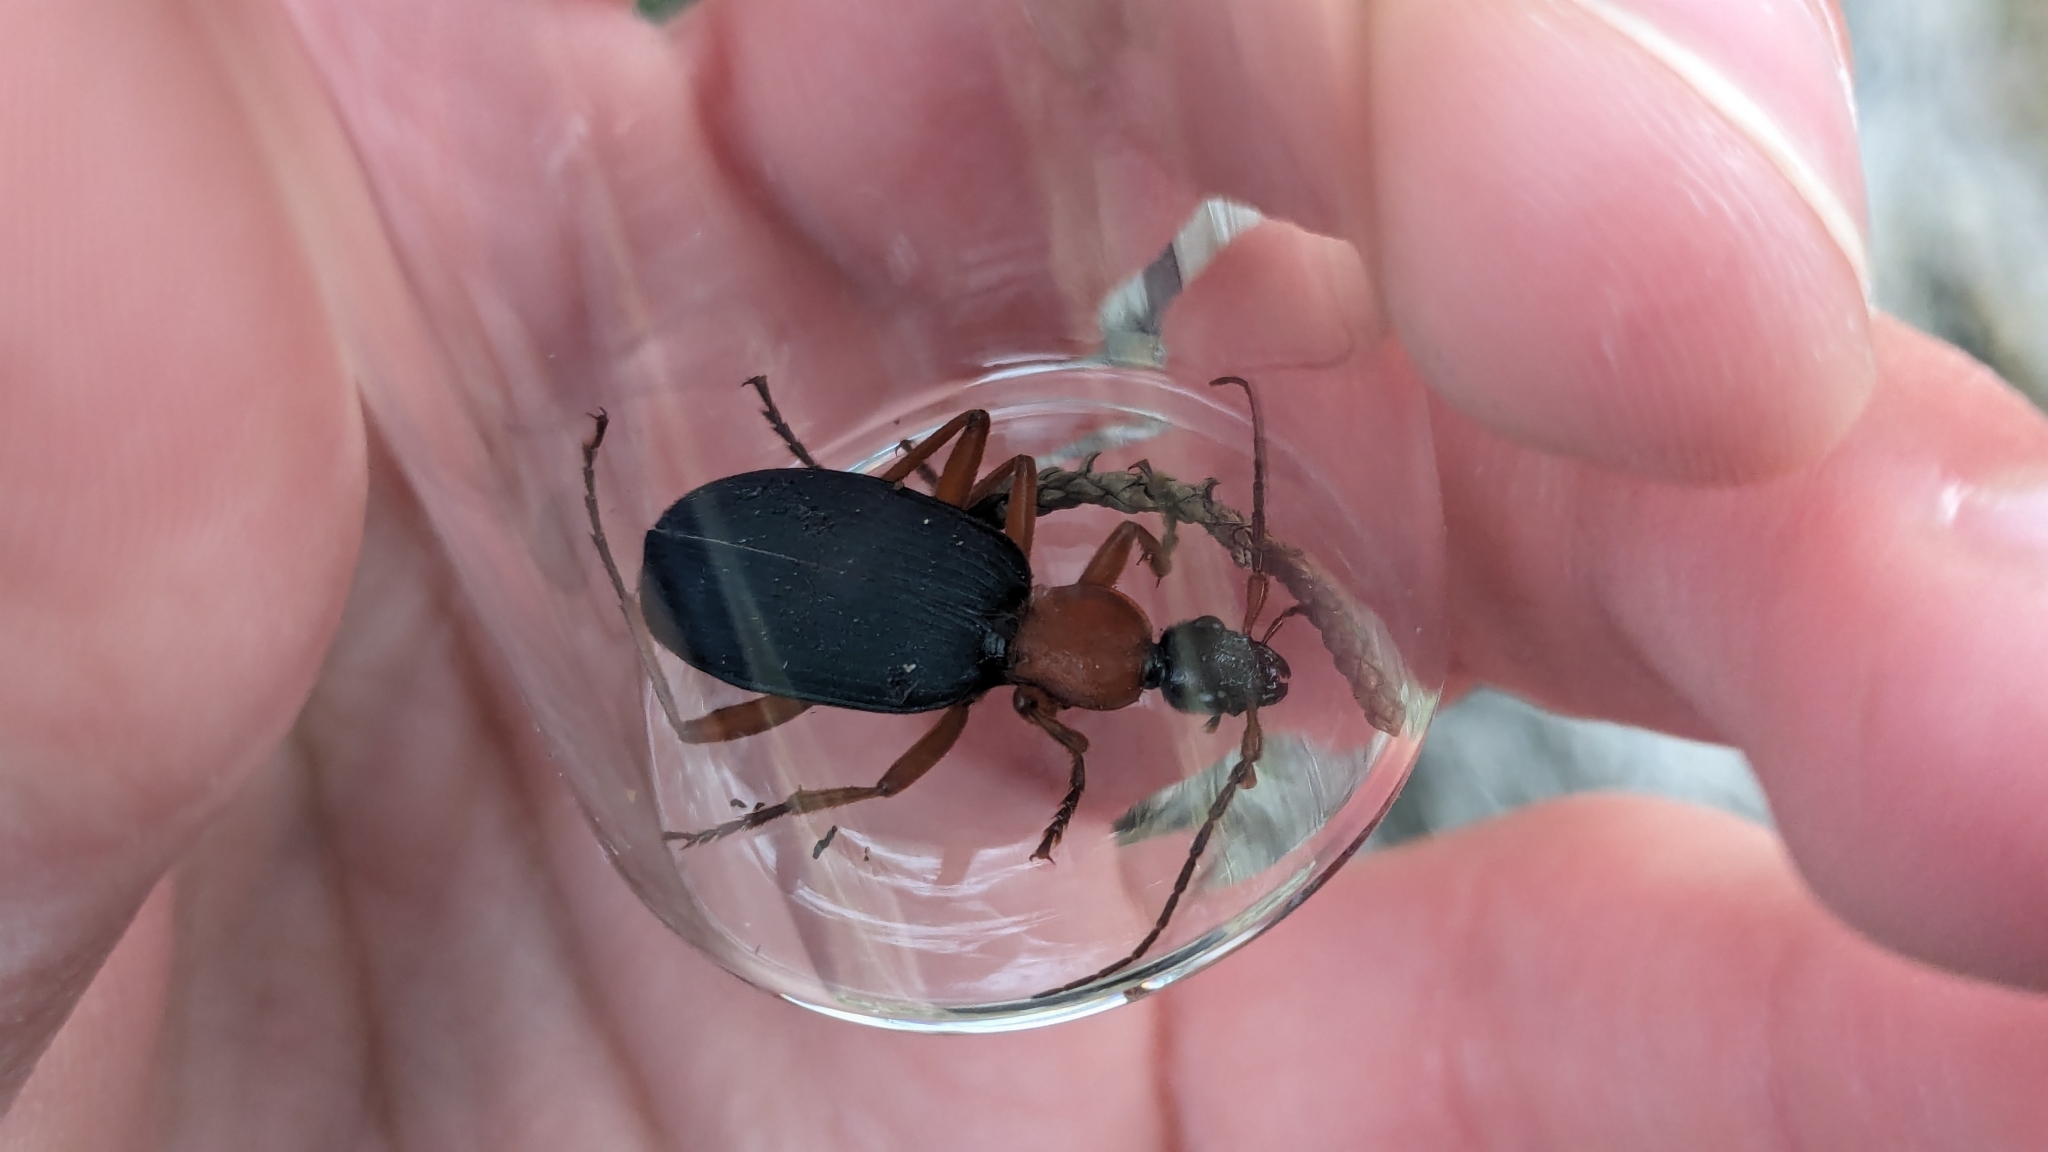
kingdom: Animalia
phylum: Arthropoda
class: Insecta
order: Coleoptera
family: Carabidae
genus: Galerita
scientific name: Galerita bicolor
